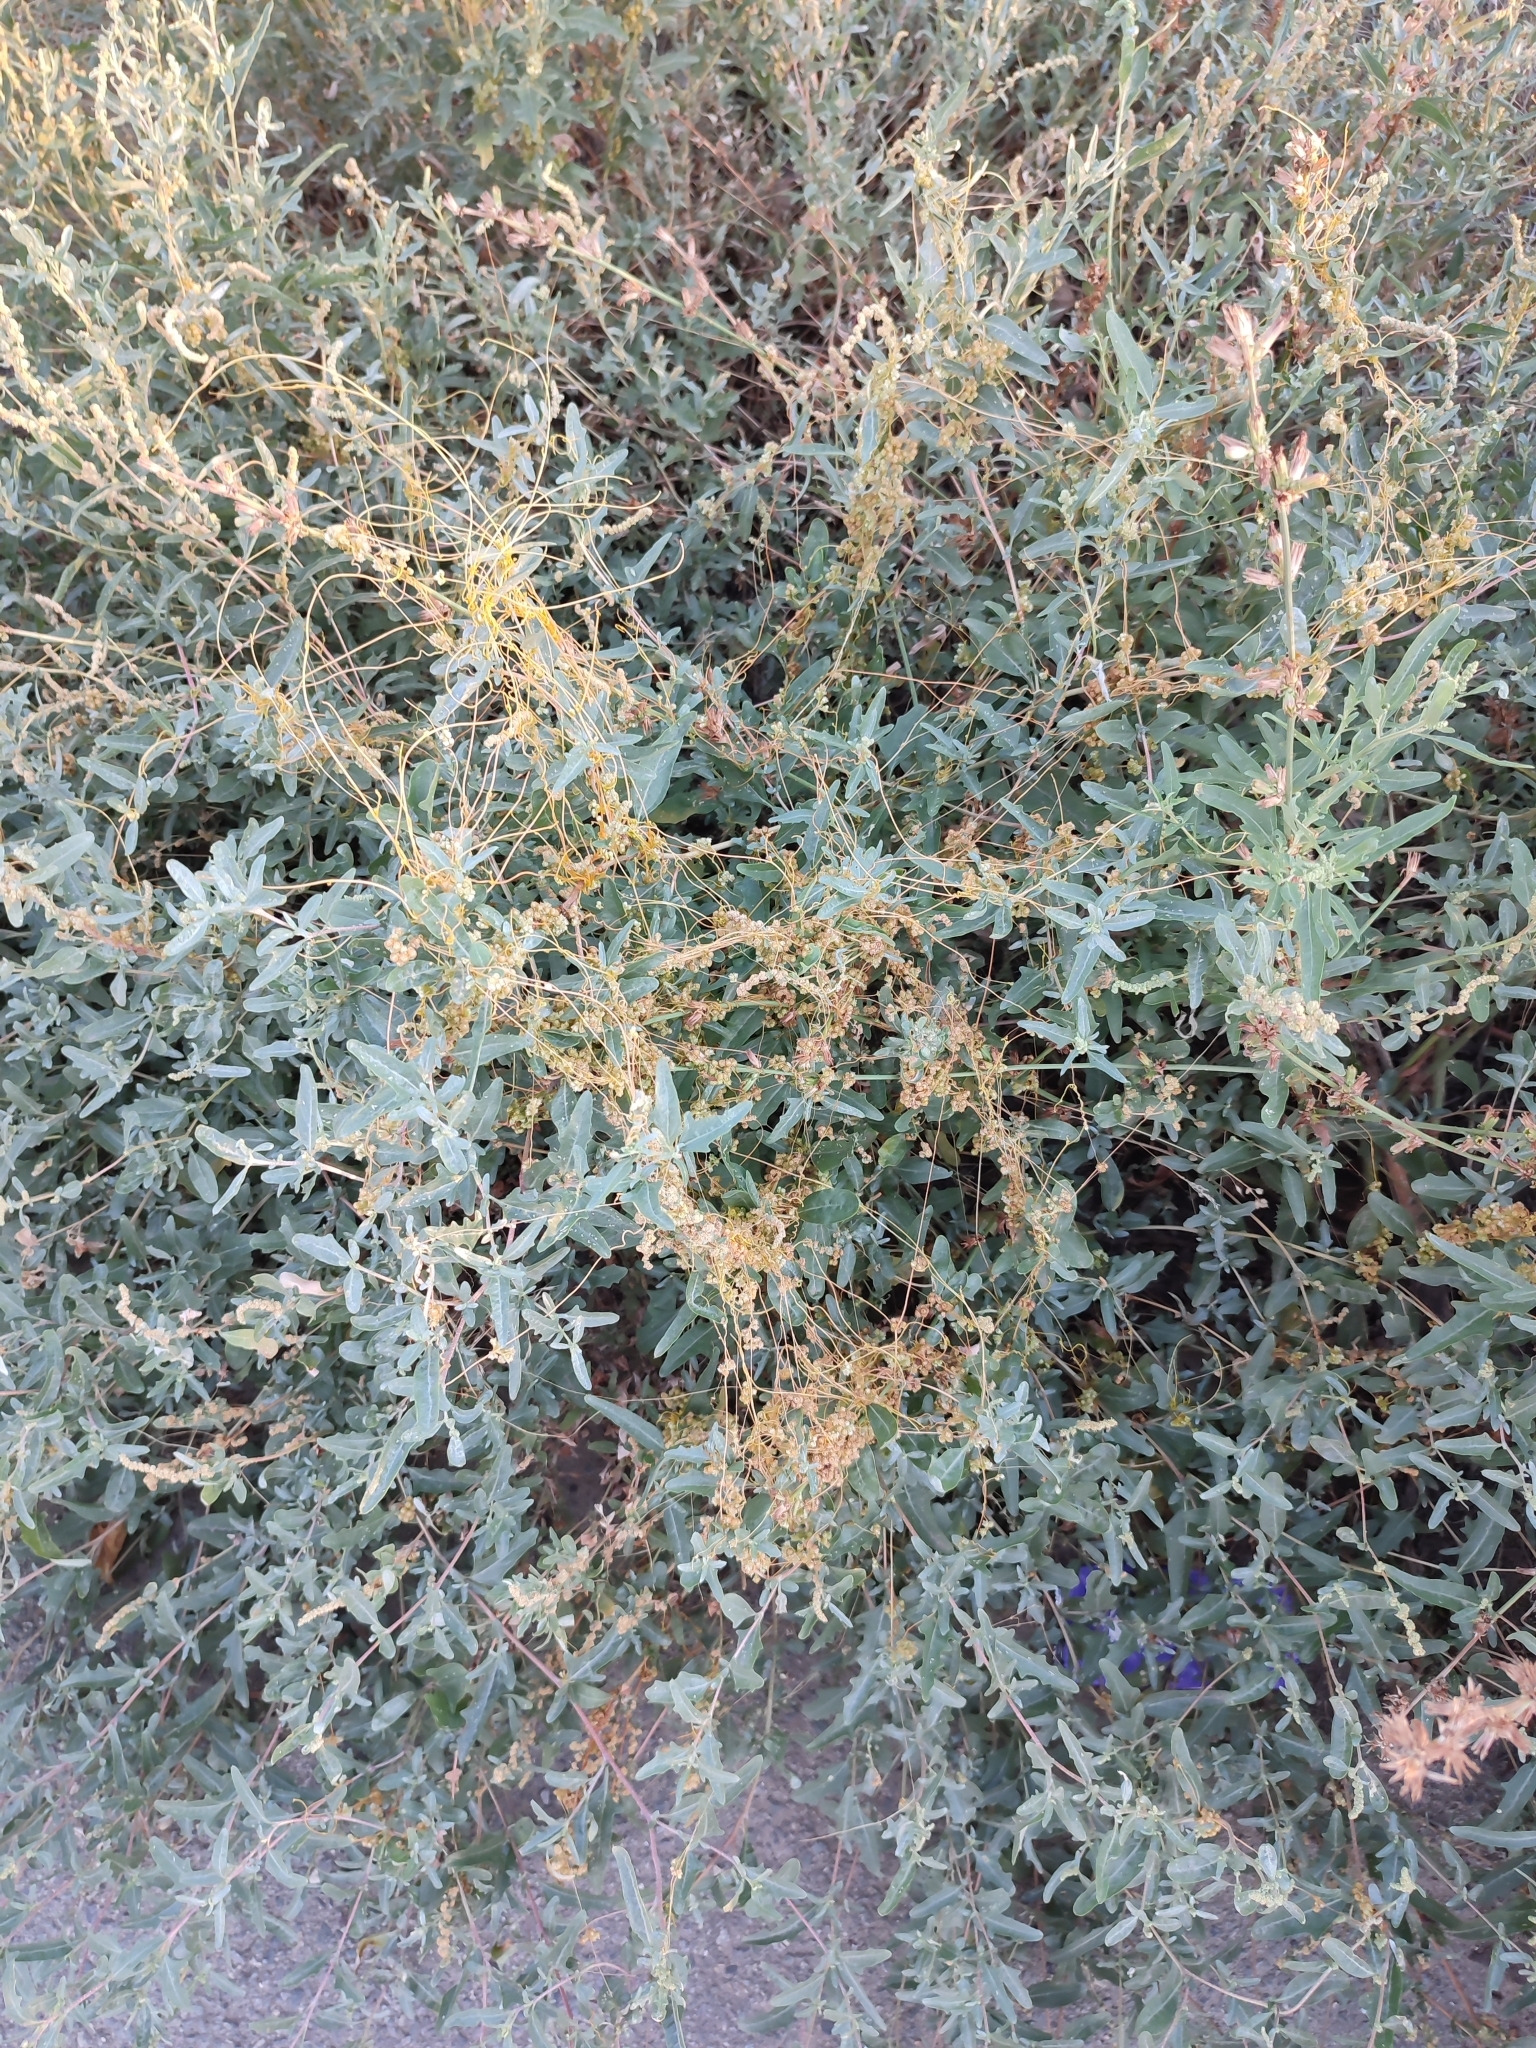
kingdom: Plantae
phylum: Tracheophyta
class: Magnoliopsida
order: Caryophyllales
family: Amaranthaceae
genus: Atriplex
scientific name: Atriplex tatarica
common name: Tatarian orache
